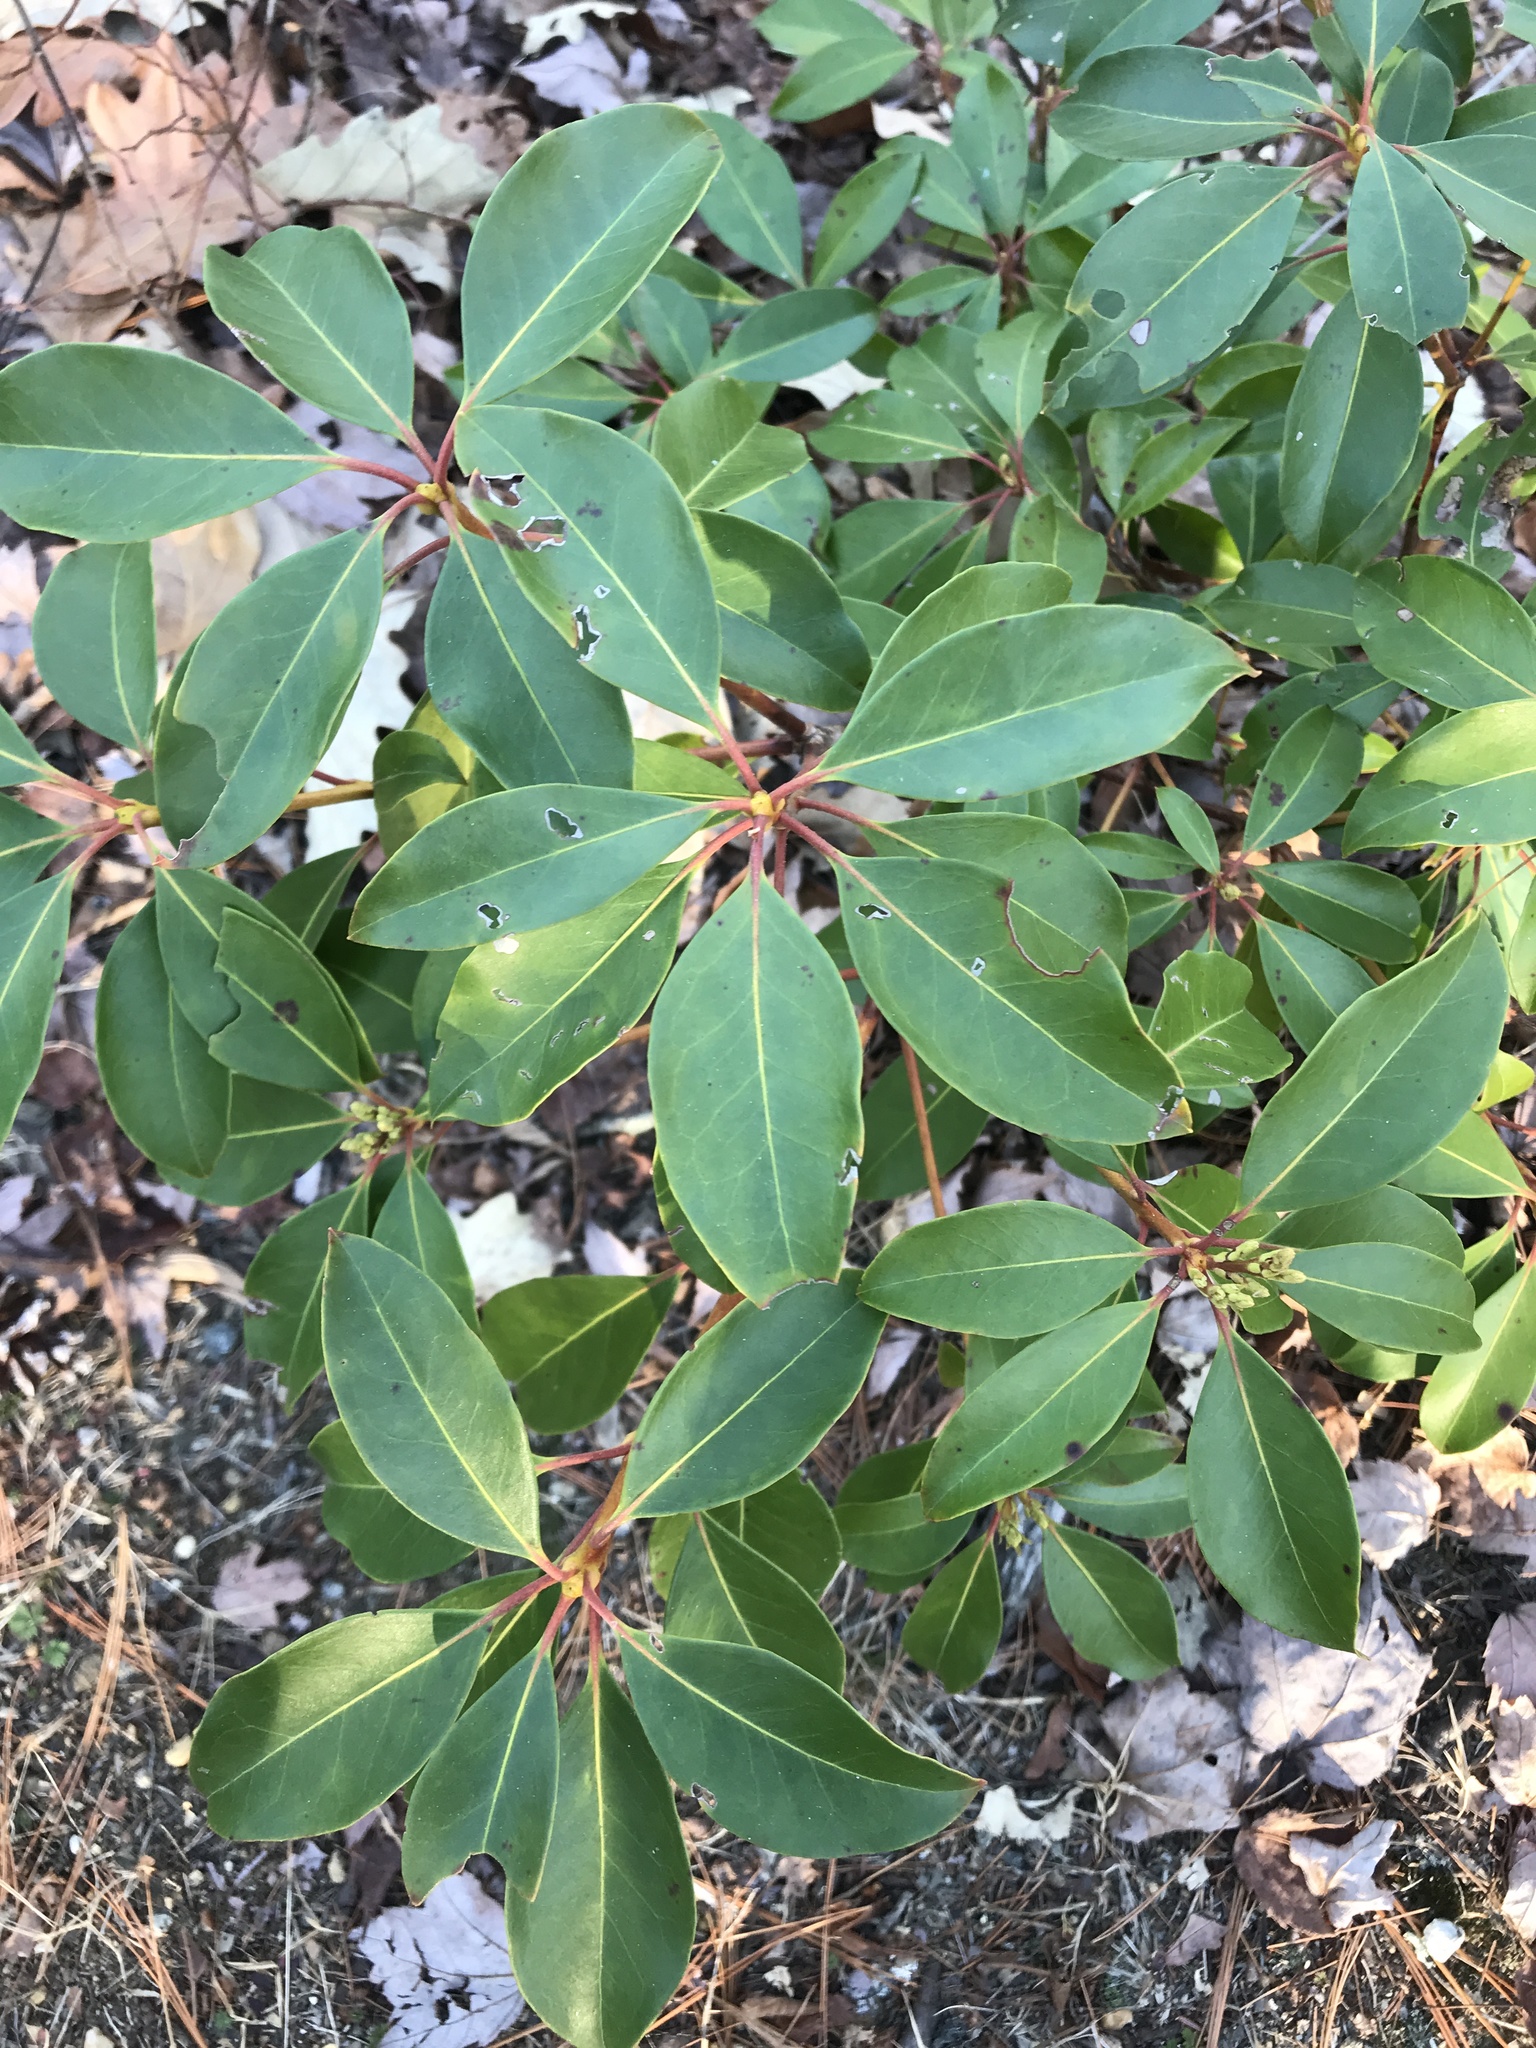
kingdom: Plantae
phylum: Tracheophyta
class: Magnoliopsida
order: Ericales
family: Ericaceae
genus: Kalmia
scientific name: Kalmia latifolia
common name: Mountain-laurel
